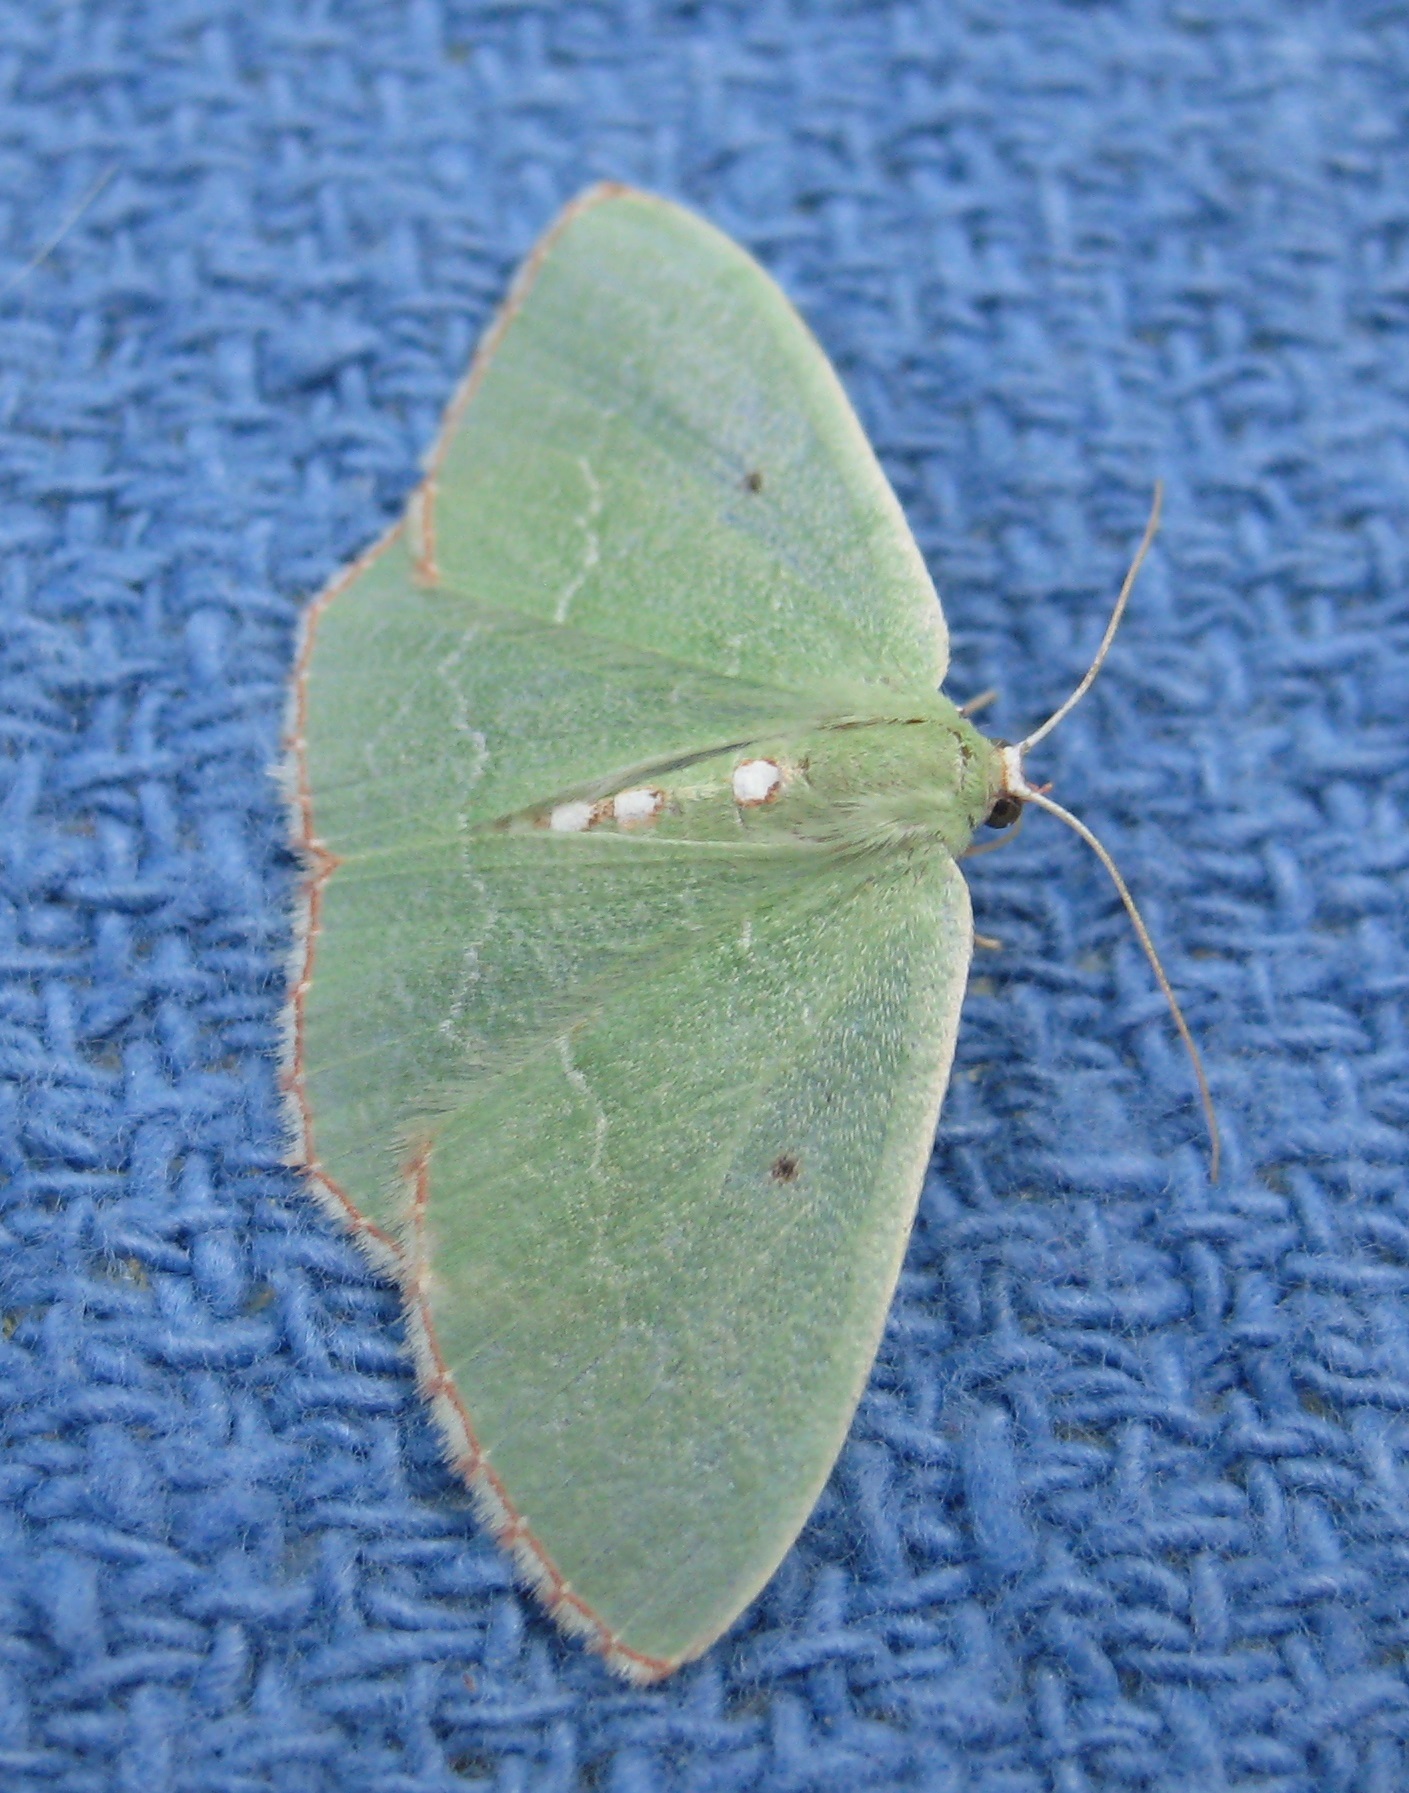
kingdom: Animalia
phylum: Arthropoda
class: Insecta
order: Lepidoptera
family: Geometridae
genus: Nemoria
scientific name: Nemoria lixaria
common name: Red-bordered emerald
